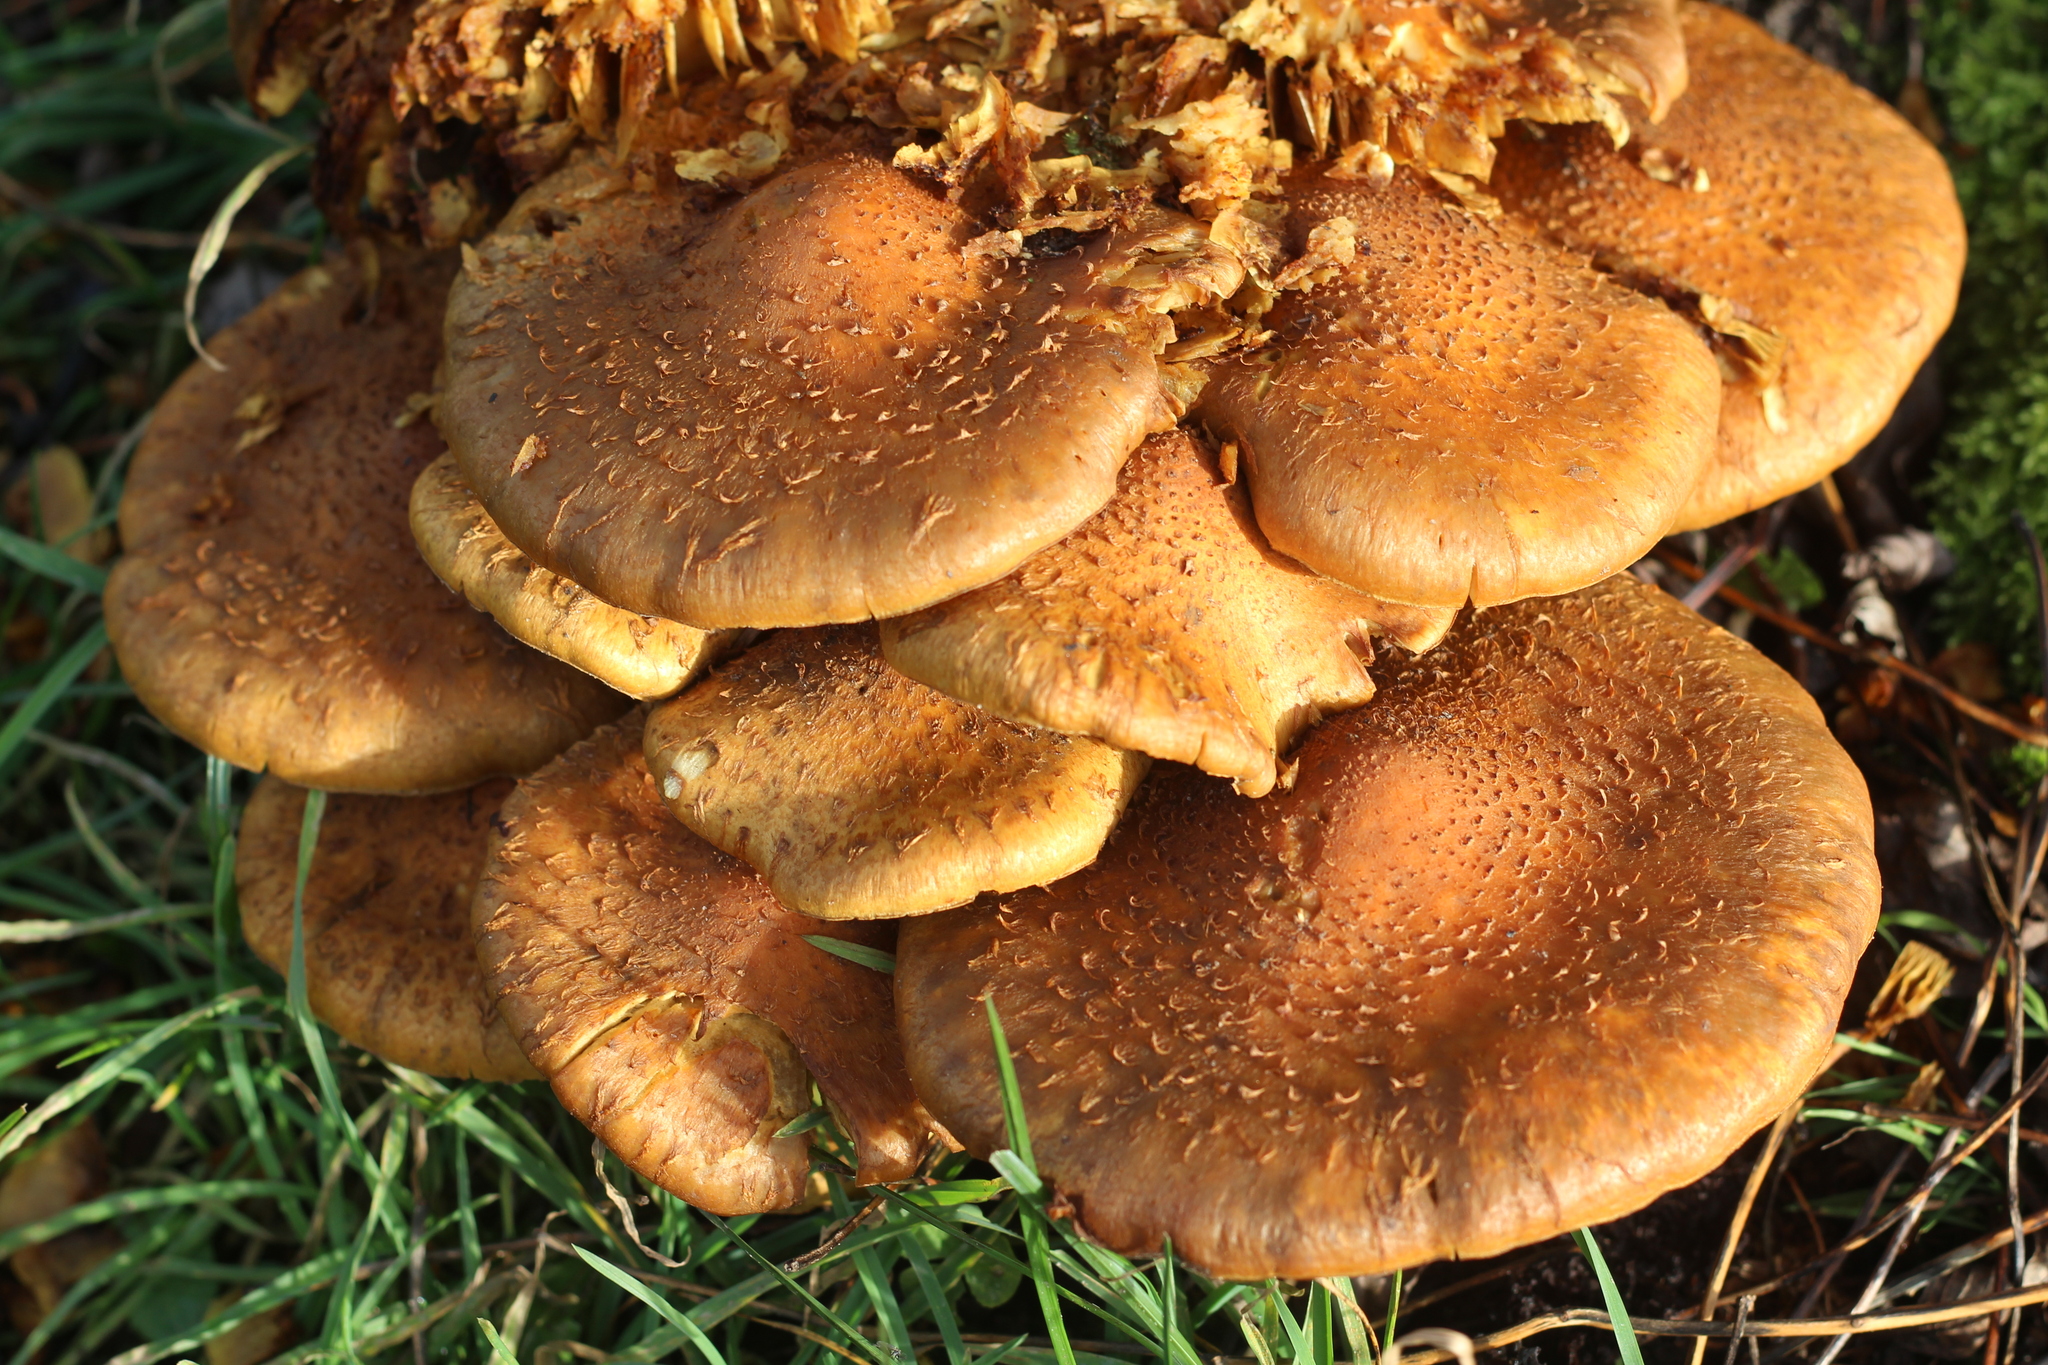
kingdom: Fungi
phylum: Basidiomycota
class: Agaricomycetes
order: Agaricales
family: Strophariaceae
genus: Pholiota
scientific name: Pholiota squarrosa
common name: Shaggy pholiota
